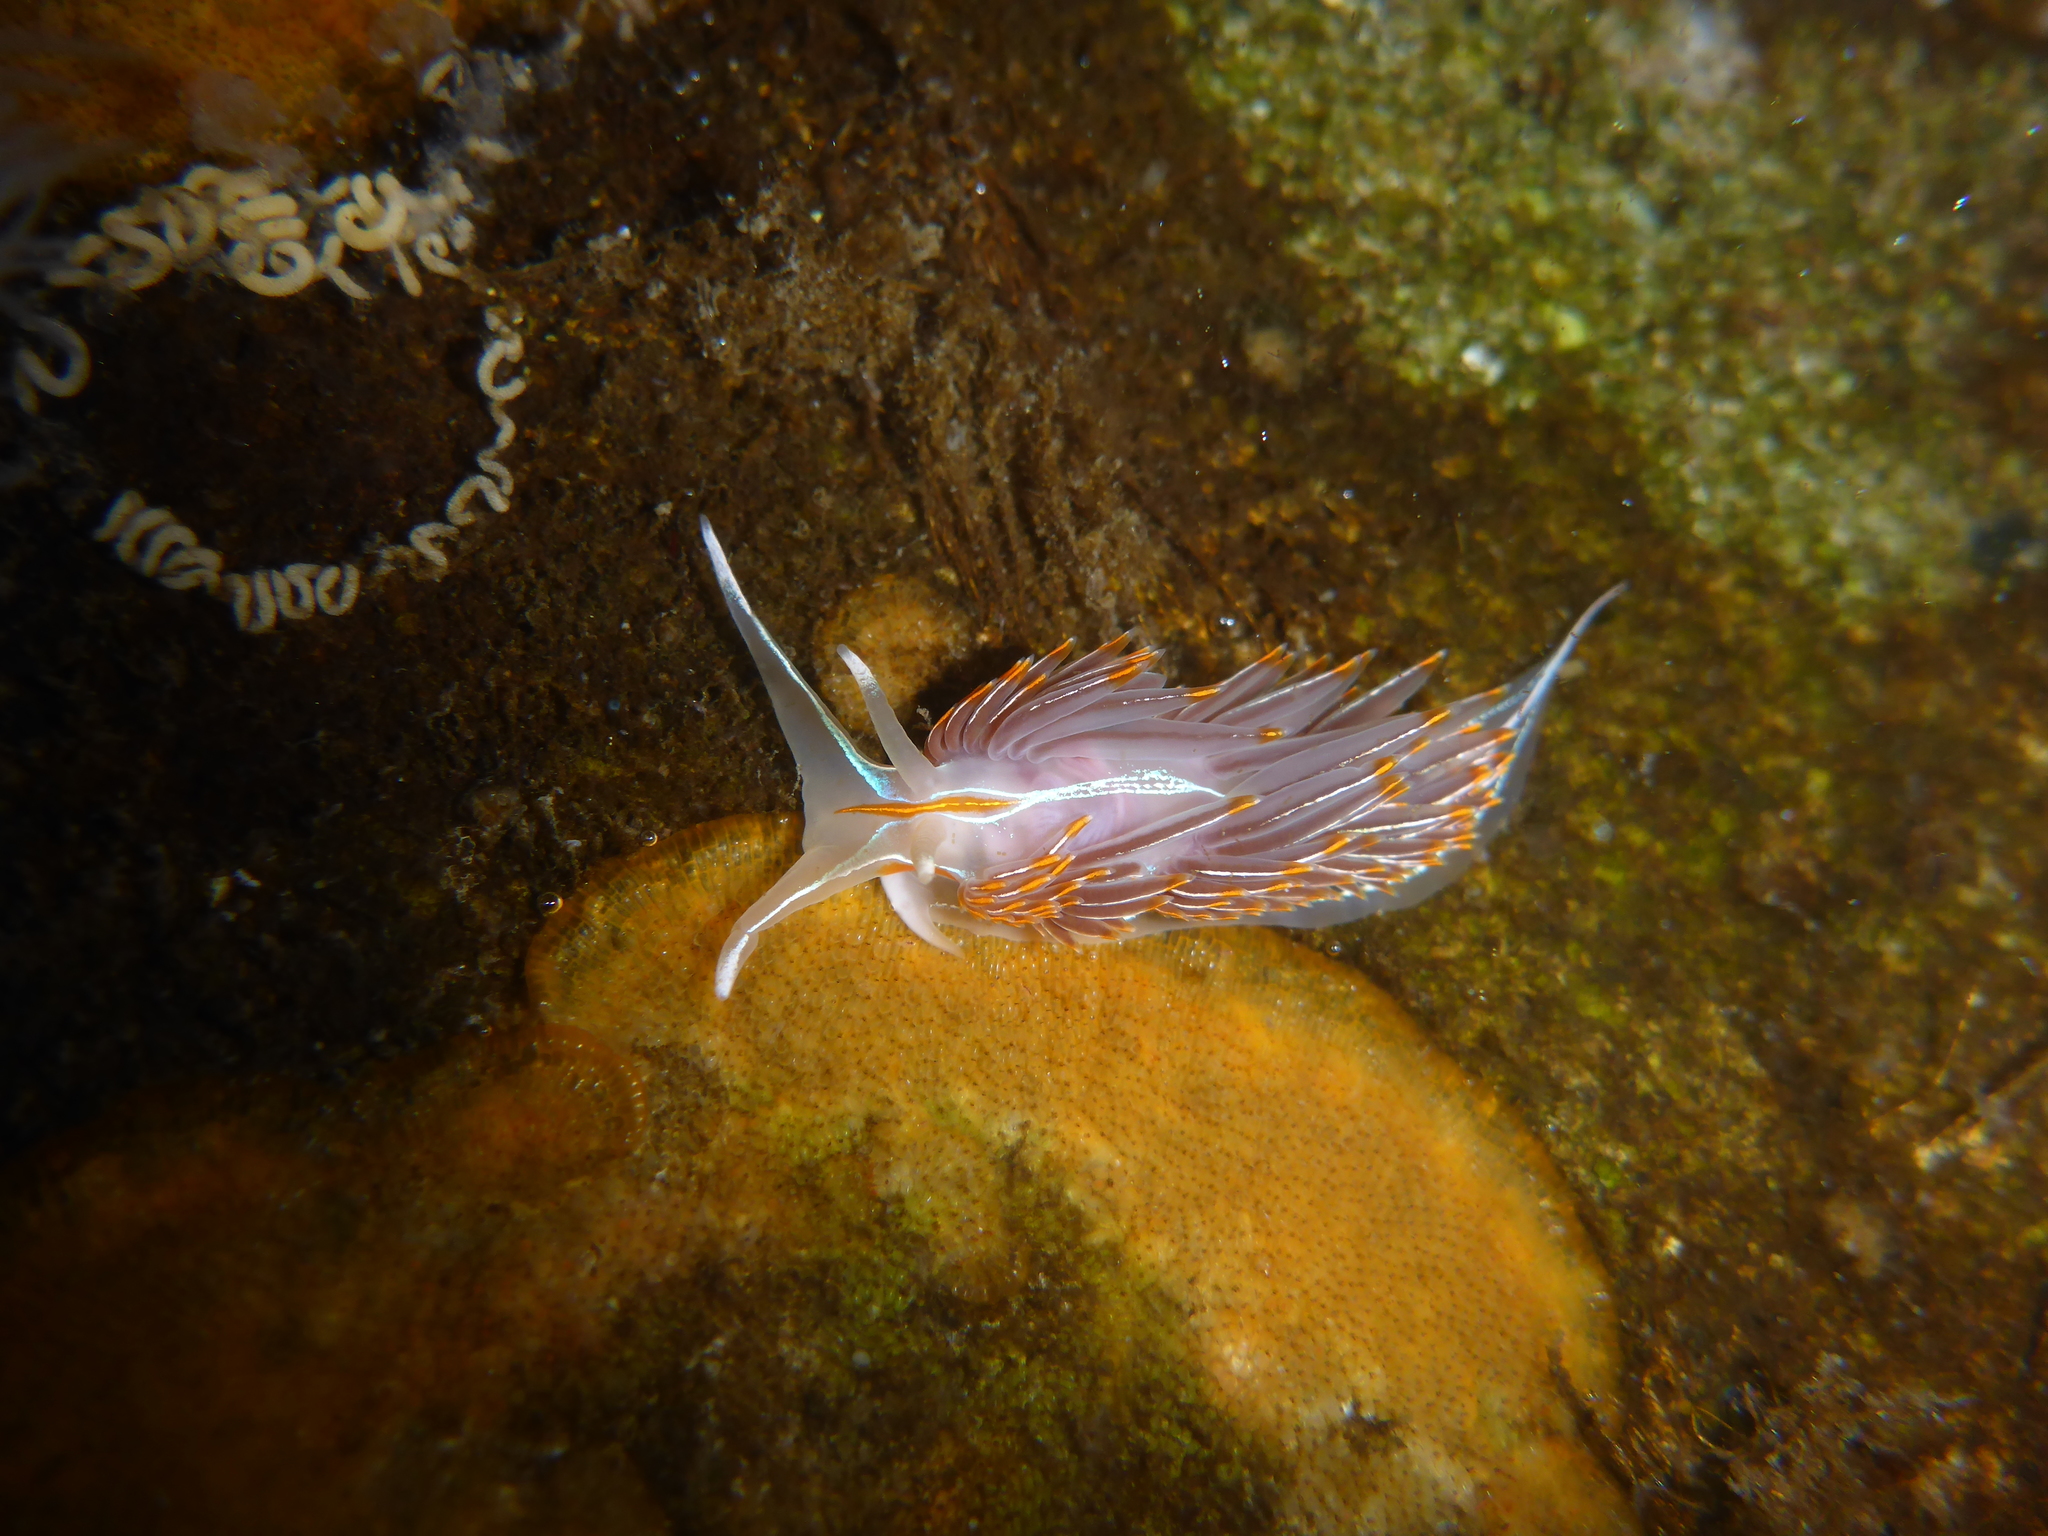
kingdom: Animalia
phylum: Mollusca
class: Gastropoda
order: Nudibranchia
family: Myrrhinidae
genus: Hermissenda
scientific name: Hermissenda crassicornis
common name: Hermissenda
